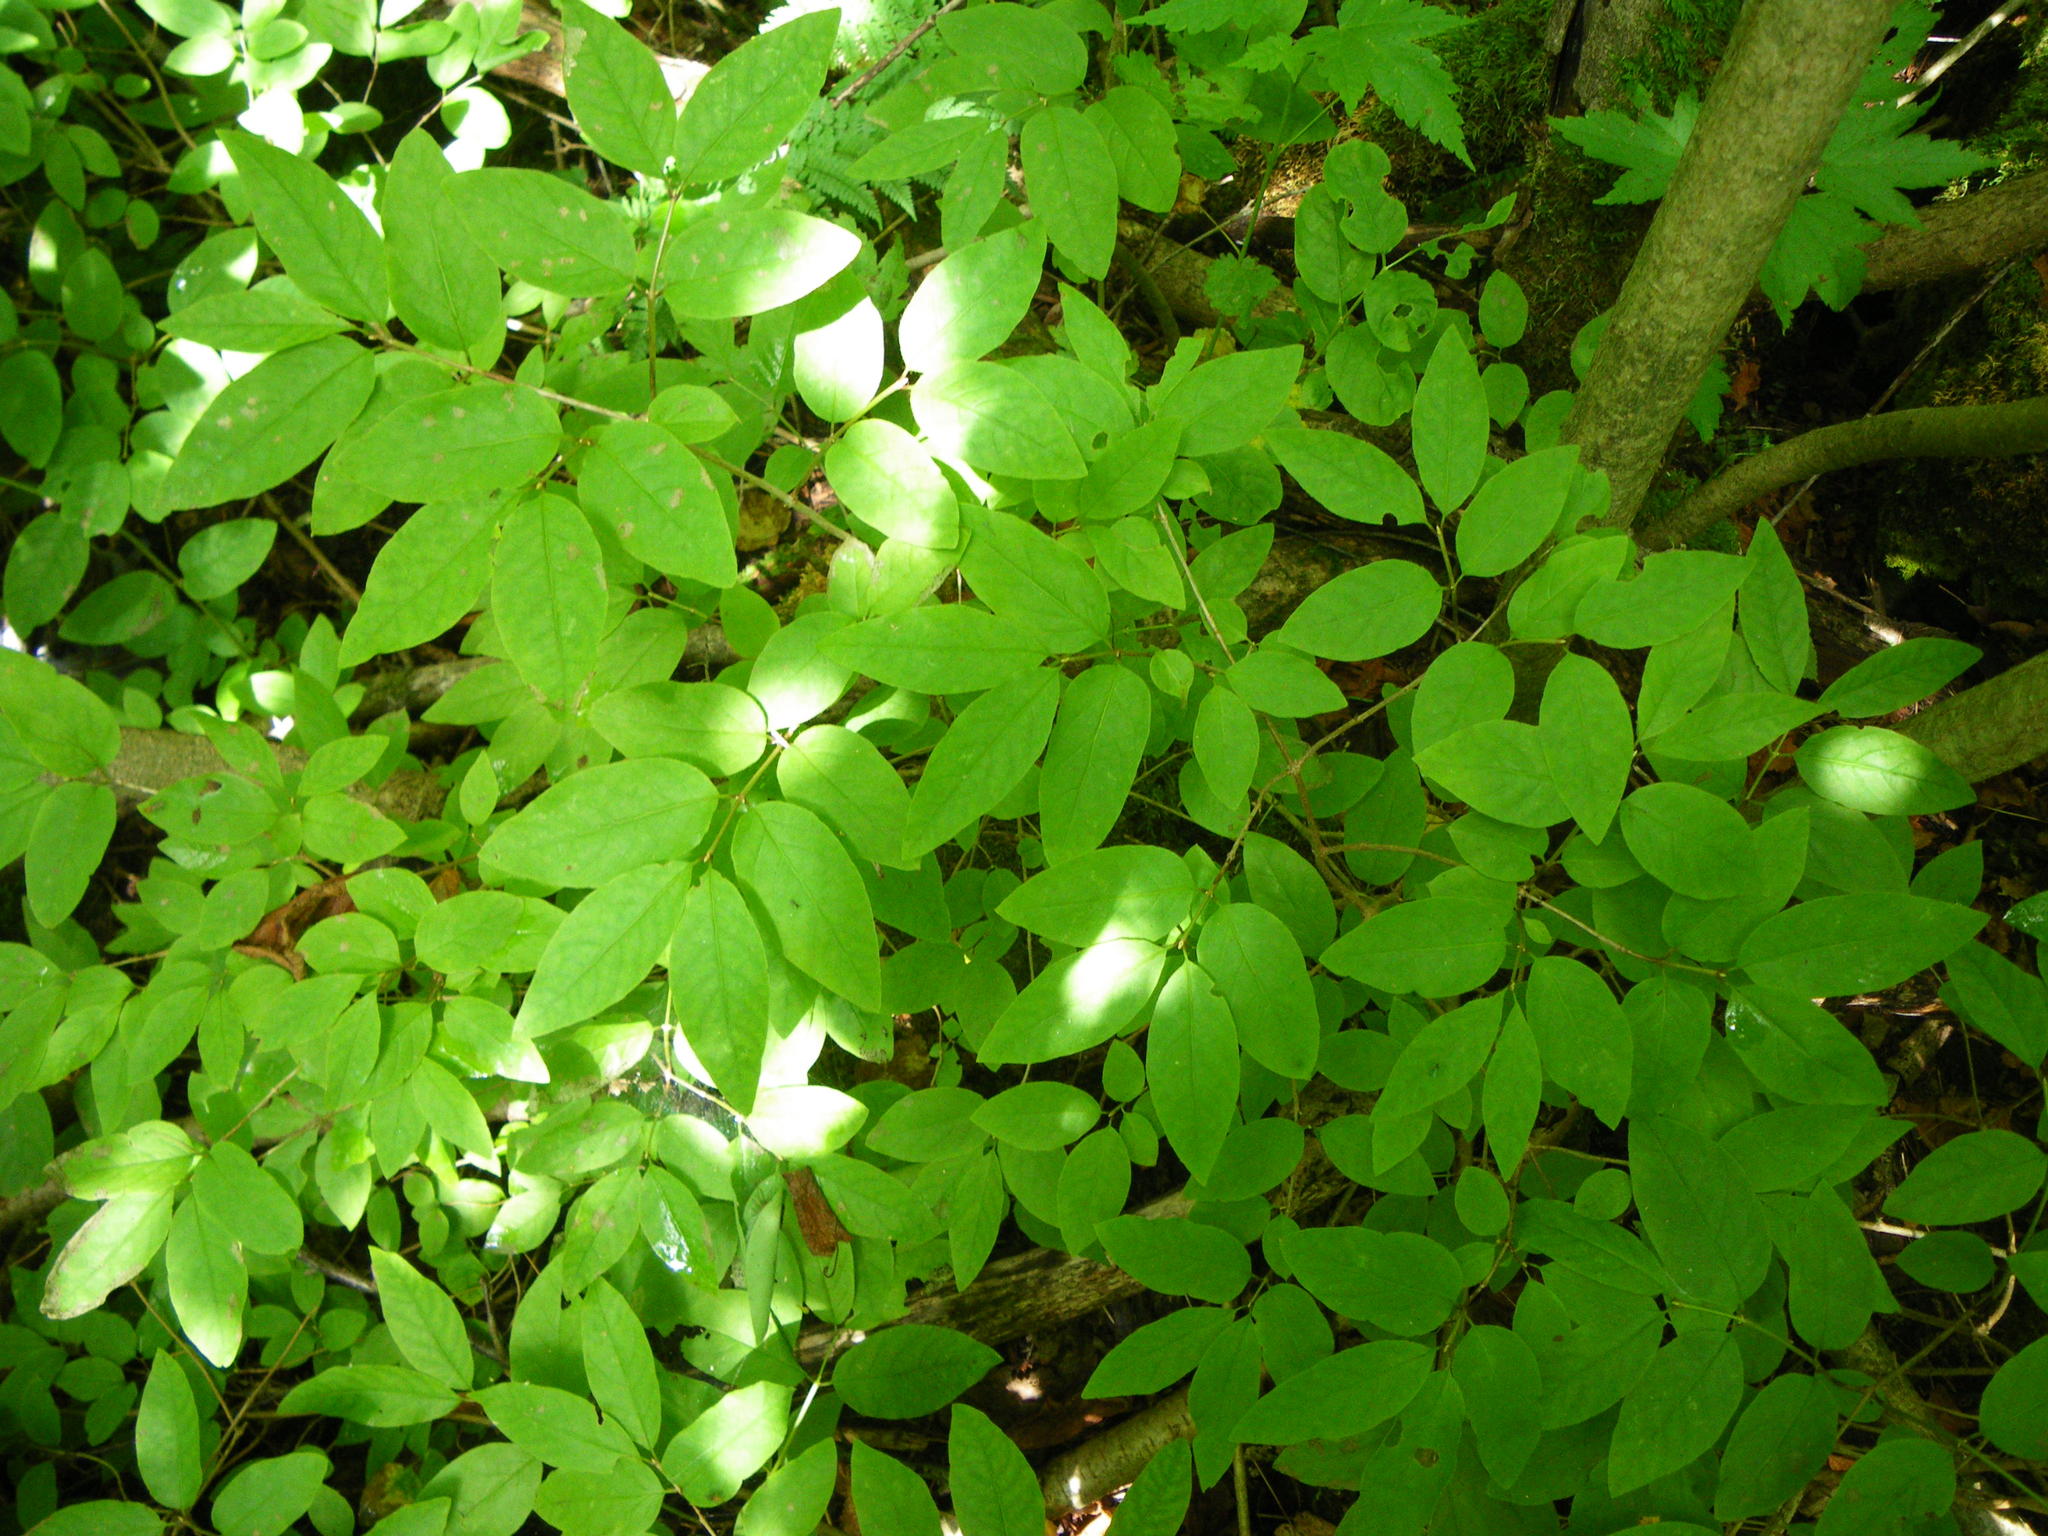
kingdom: Plantae
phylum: Tracheophyta
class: Magnoliopsida
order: Dipsacales
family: Caprifoliaceae
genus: Lonicera
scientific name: Lonicera canadensis
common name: American fly-honeysuckle
